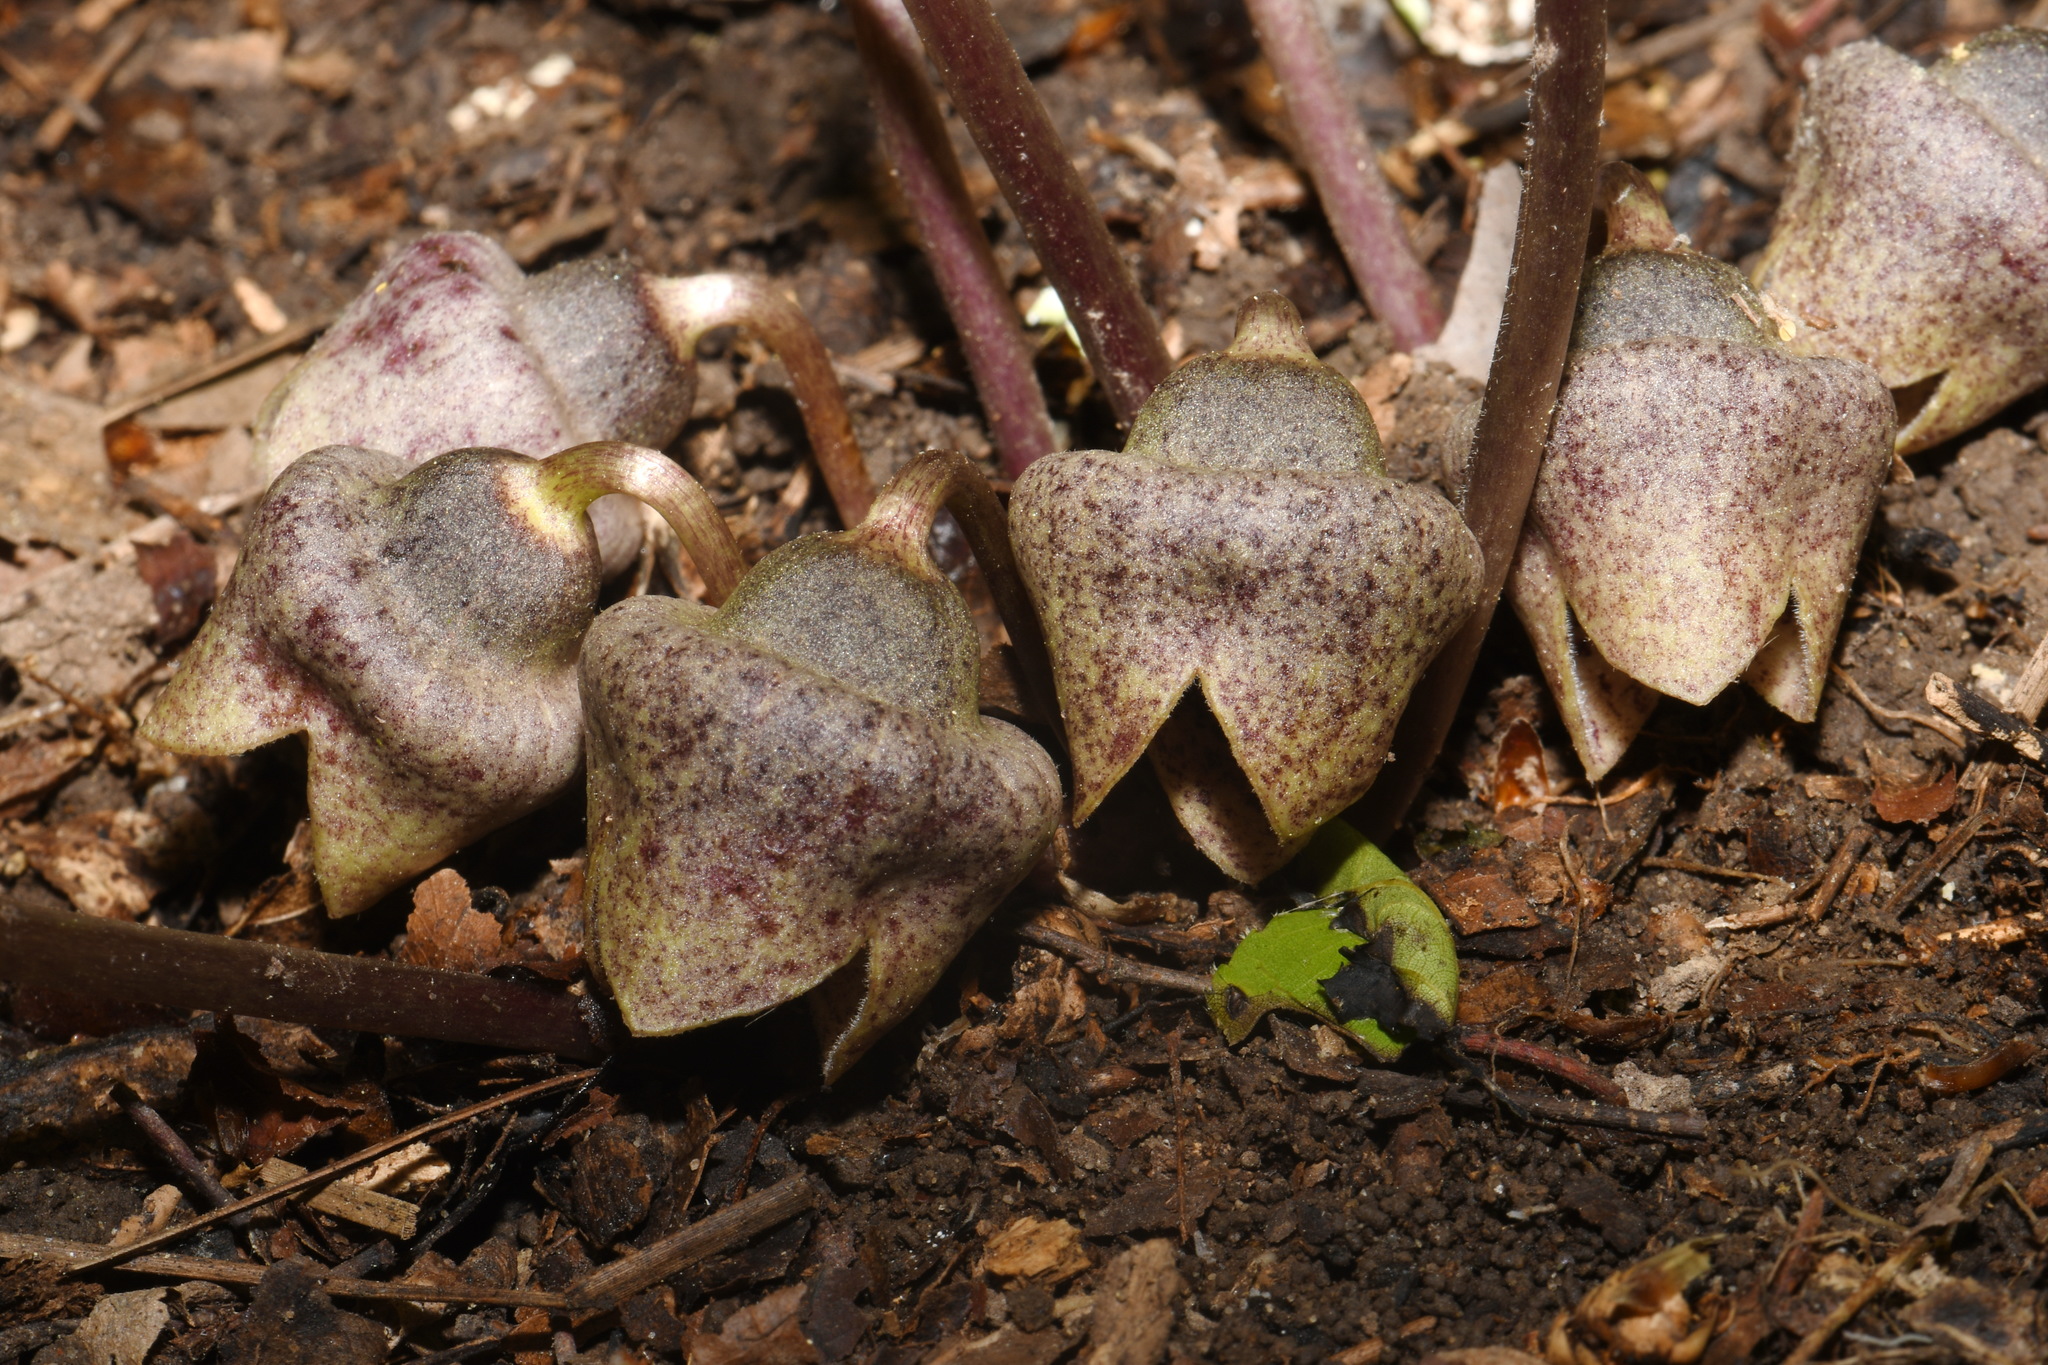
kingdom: Plantae
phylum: Tracheophyta
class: Magnoliopsida
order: Piperales
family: Aristolochiaceae
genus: Hexastylis
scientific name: Hexastylis finzelii
